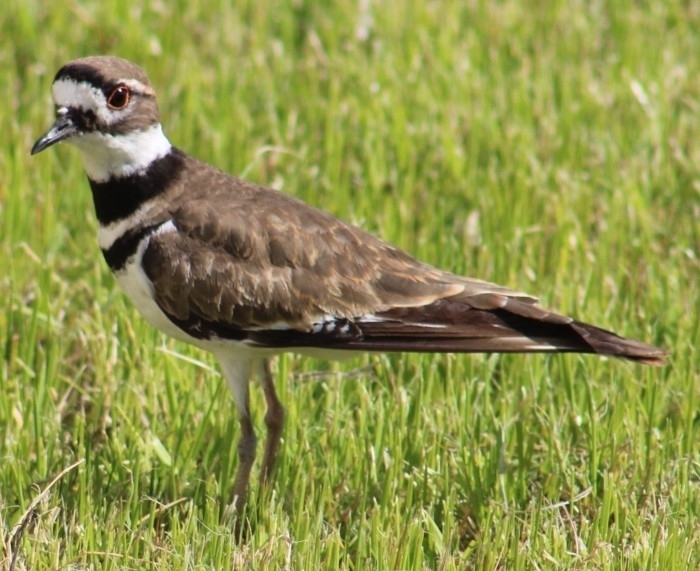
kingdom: Animalia
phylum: Chordata
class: Aves
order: Charadriiformes
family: Charadriidae
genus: Charadrius
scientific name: Charadrius vociferus
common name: Killdeer
